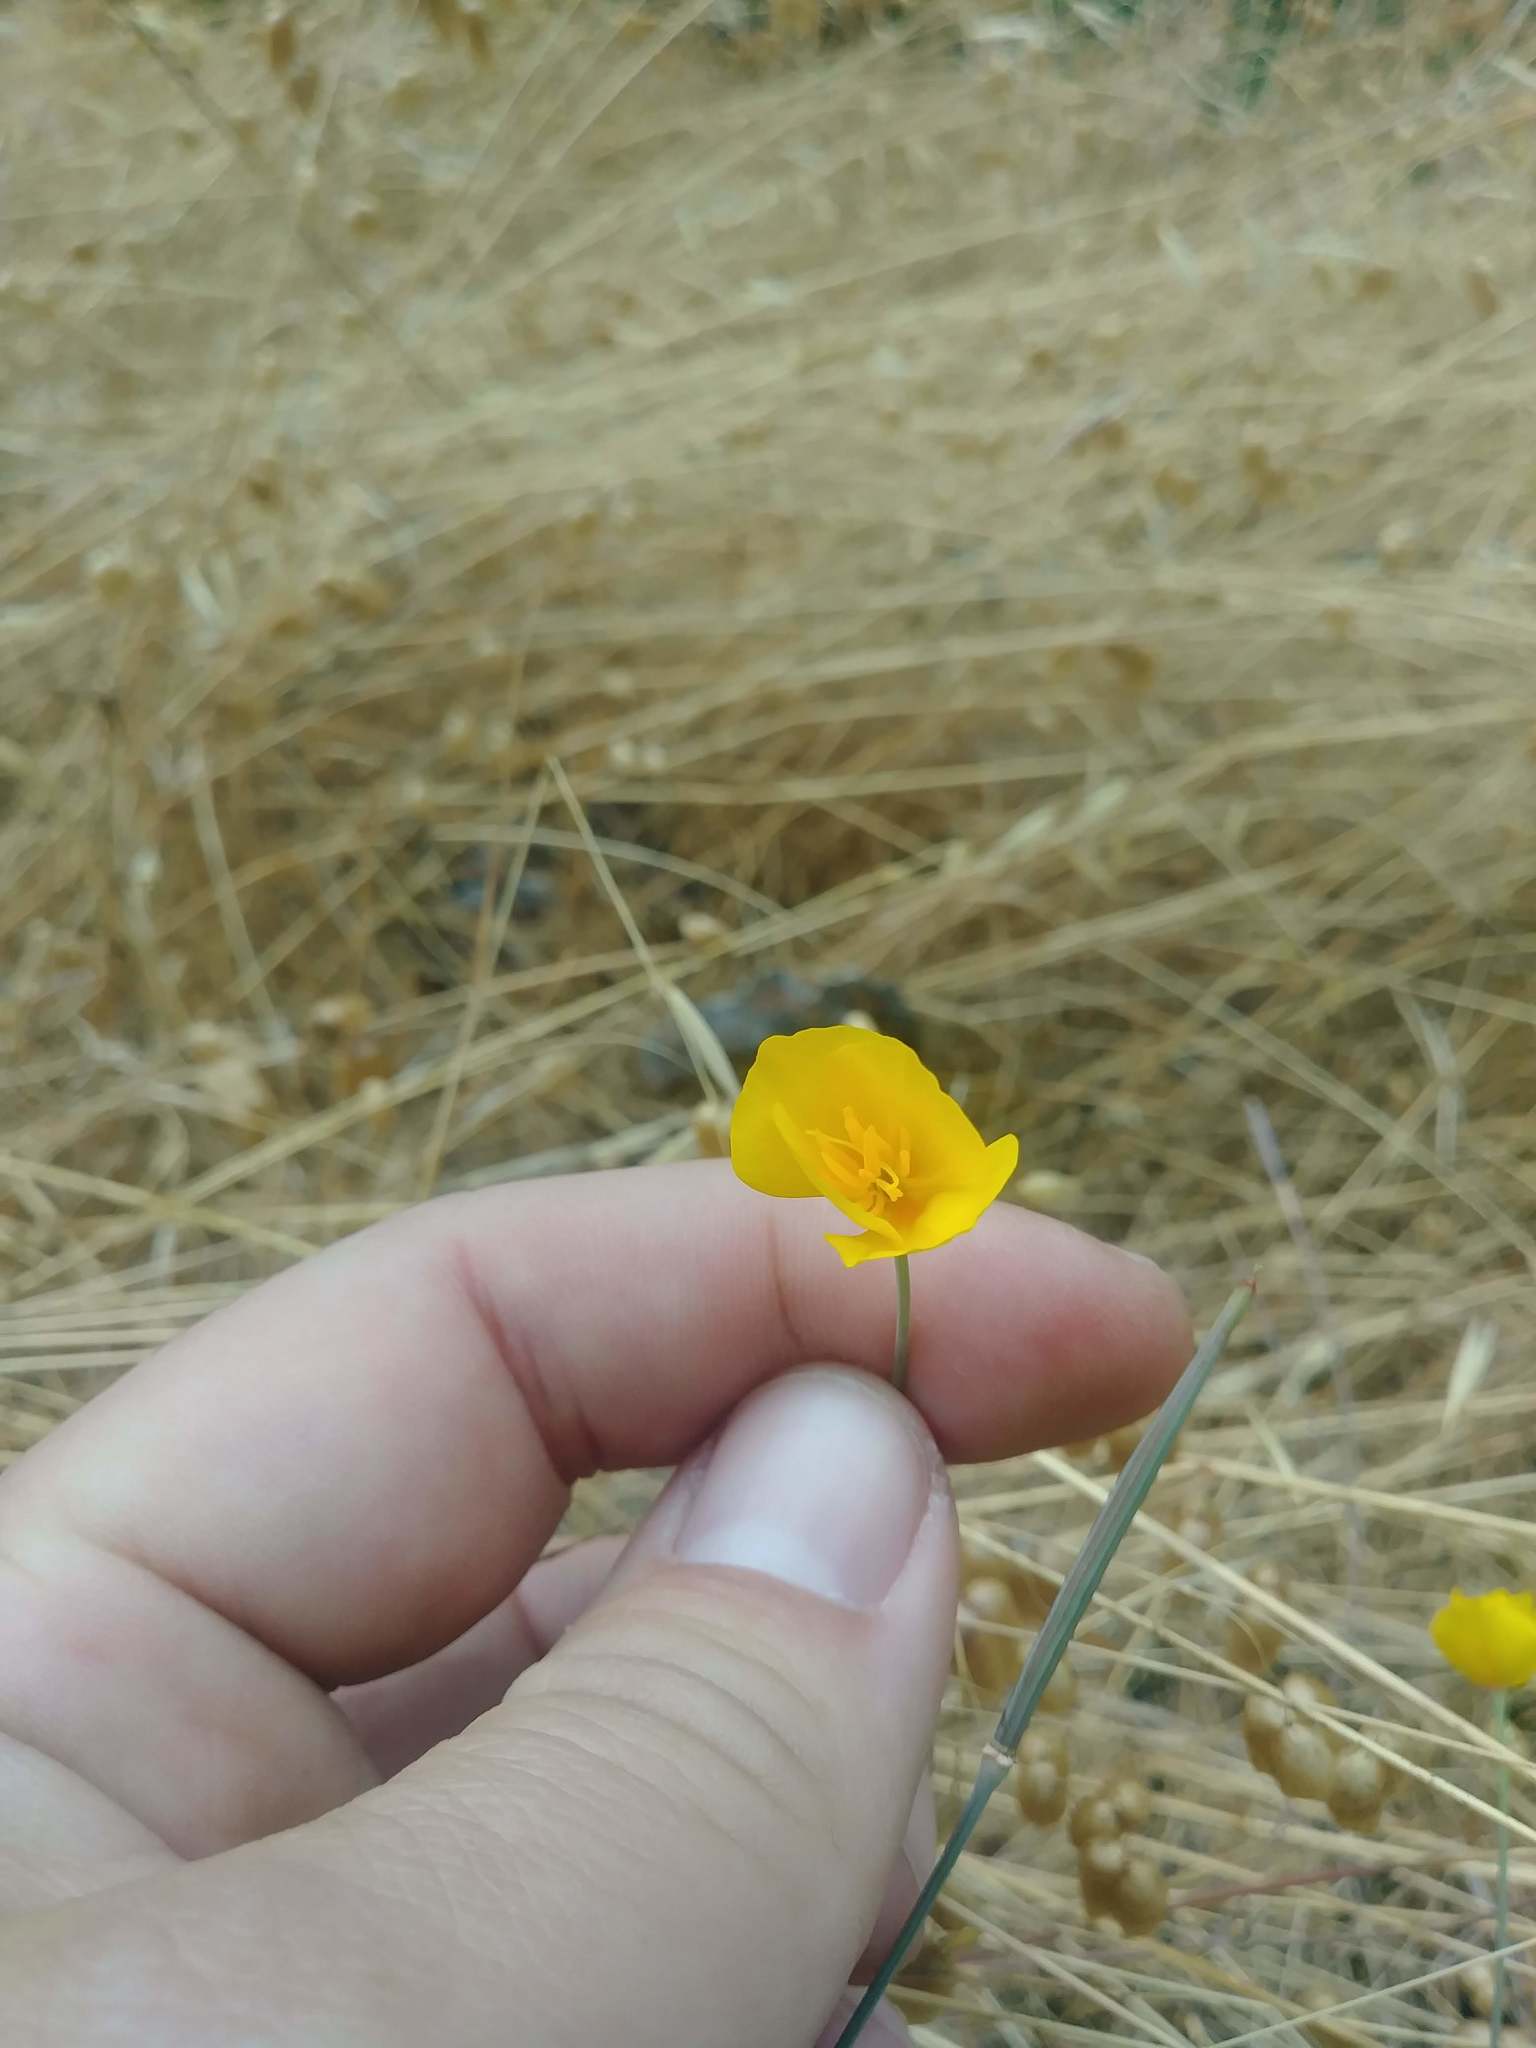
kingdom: Plantae
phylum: Tracheophyta
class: Magnoliopsida
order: Ranunculales
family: Papaveraceae
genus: Eschscholzia
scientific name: Eschscholzia californica
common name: California poppy
